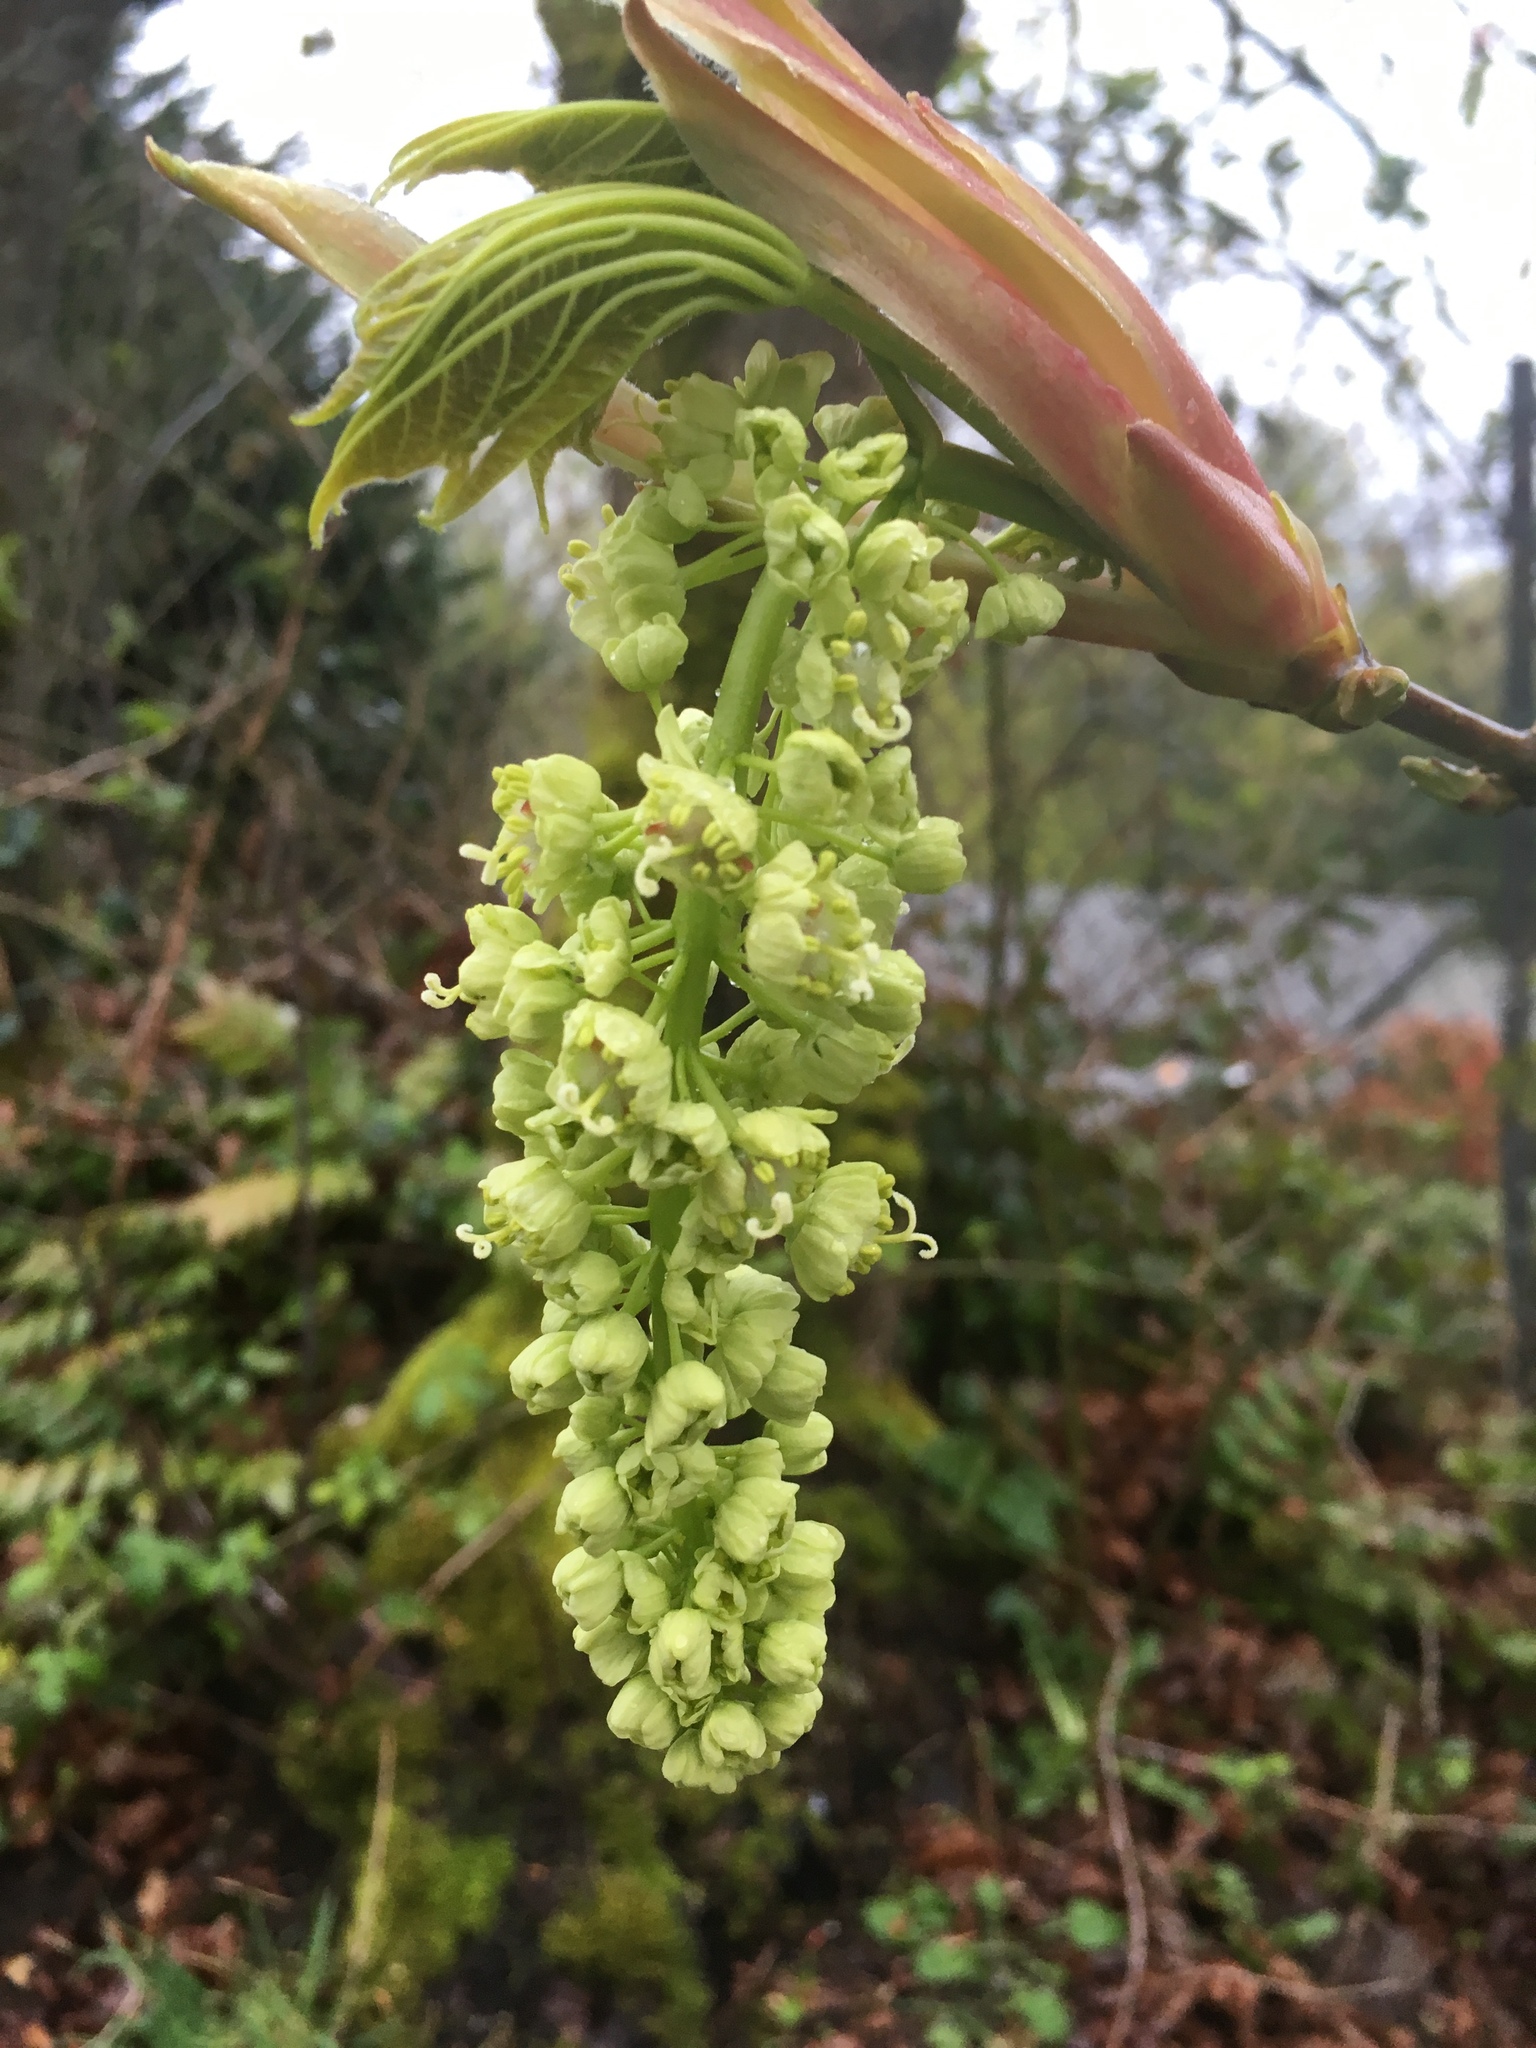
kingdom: Plantae
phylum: Tracheophyta
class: Magnoliopsida
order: Sapindales
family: Sapindaceae
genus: Acer
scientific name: Acer macrophyllum
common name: Oregon maple
